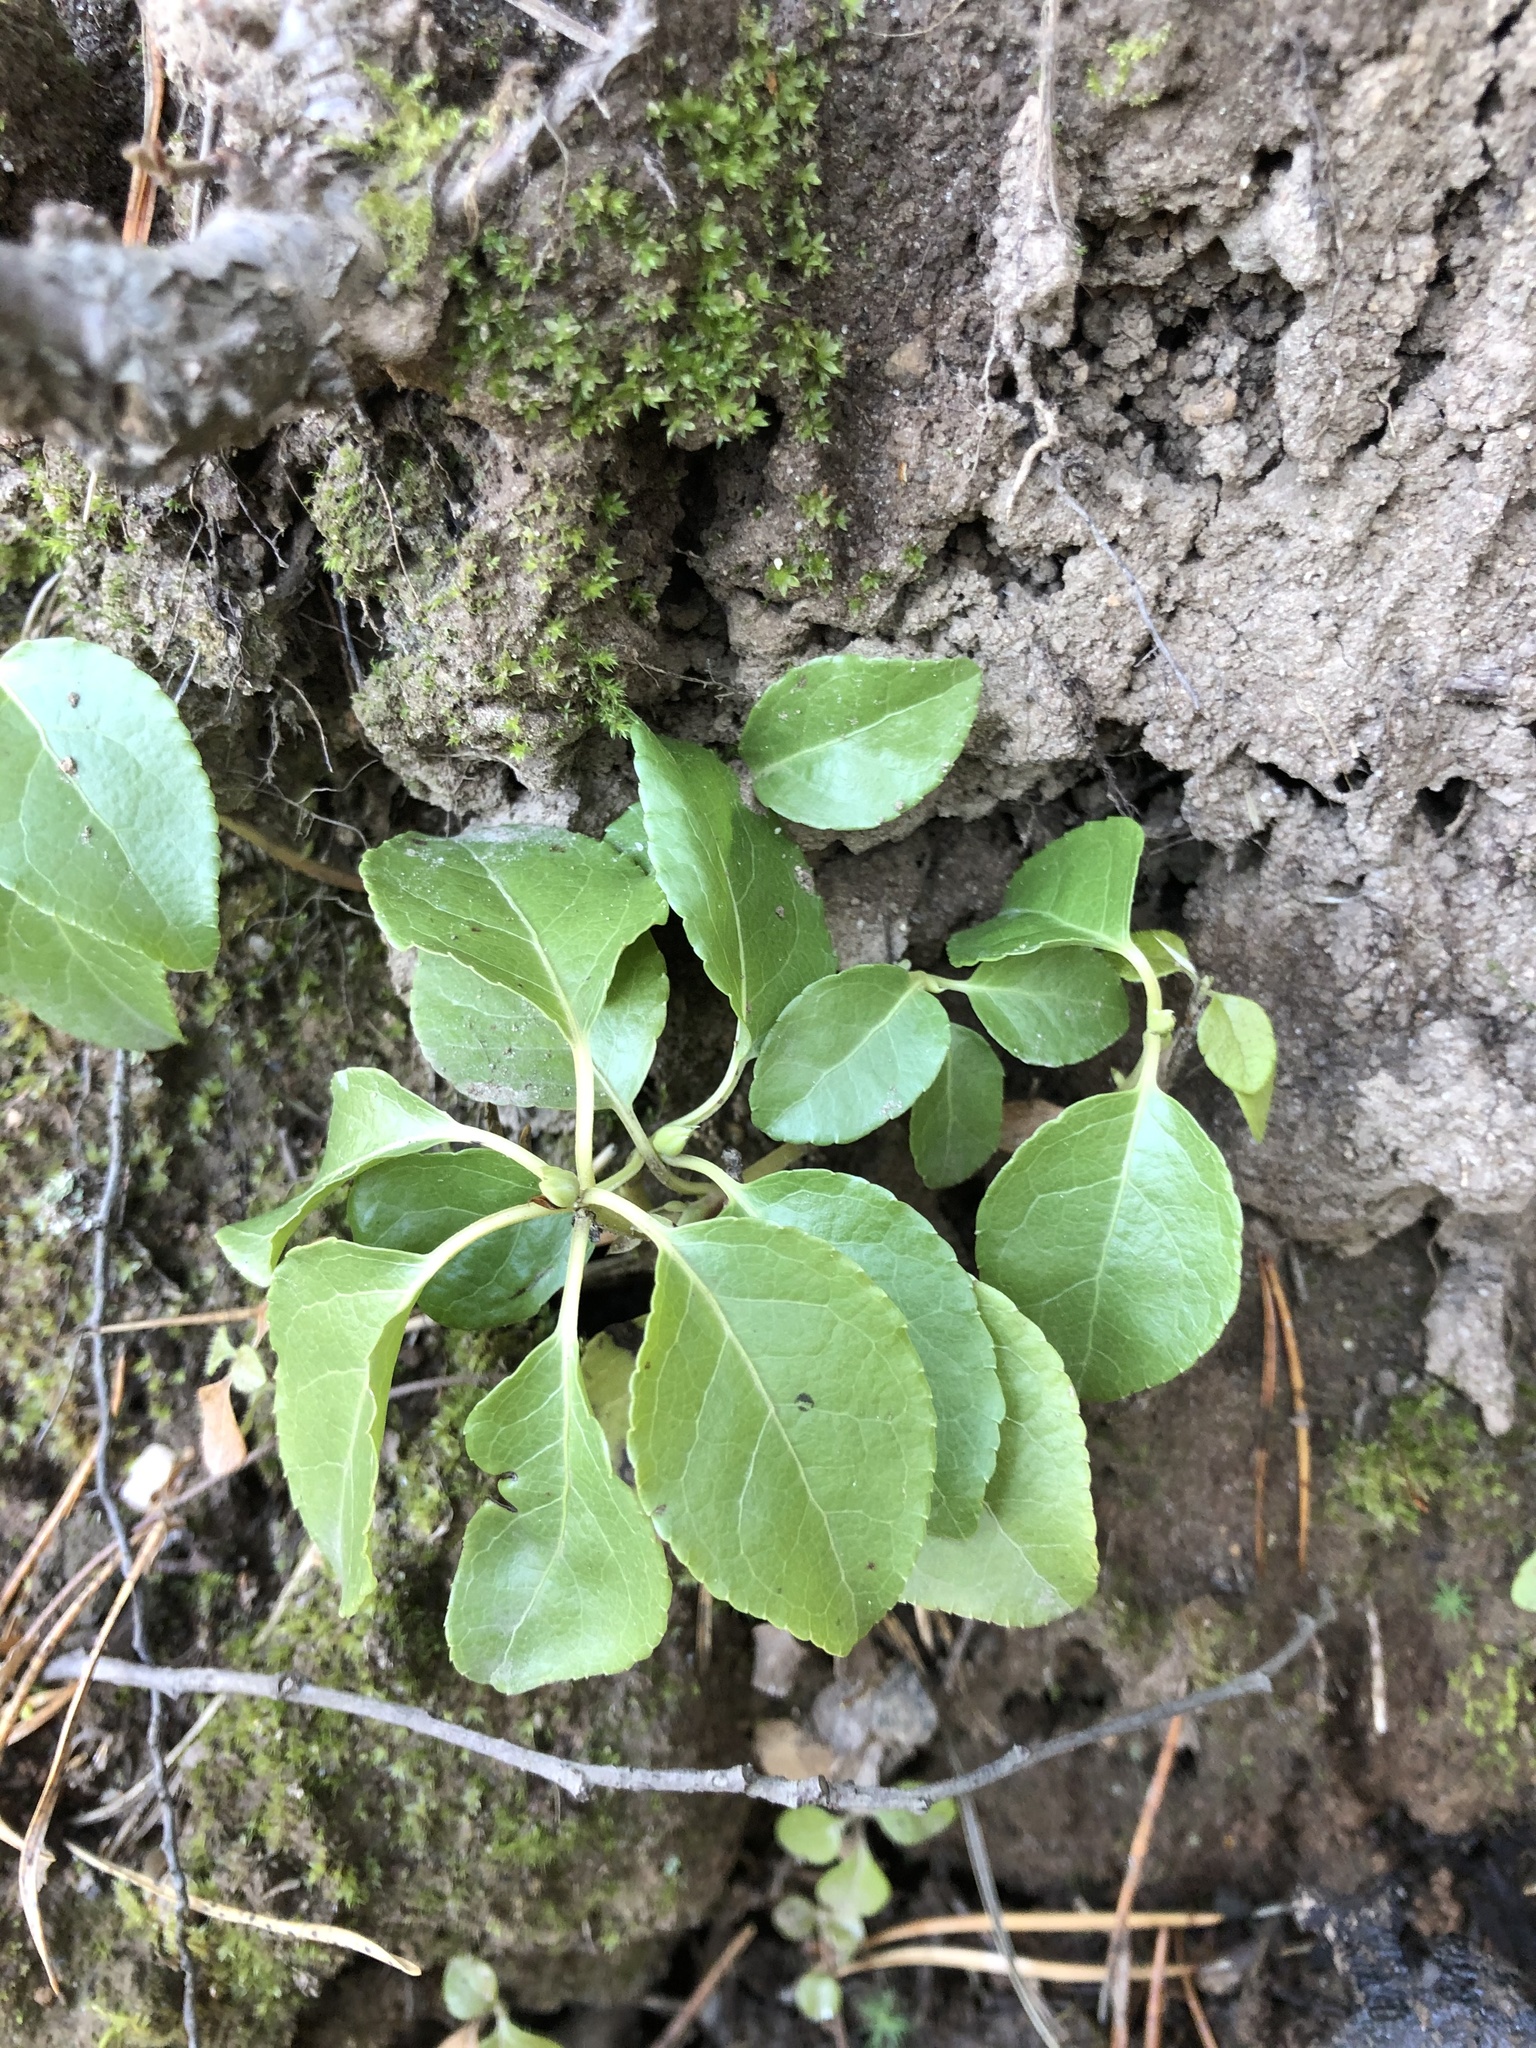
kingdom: Plantae
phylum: Tracheophyta
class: Magnoliopsida
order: Ericales
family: Ericaceae
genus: Orthilia
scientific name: Orthilia secunda
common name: One-sided orthilia
